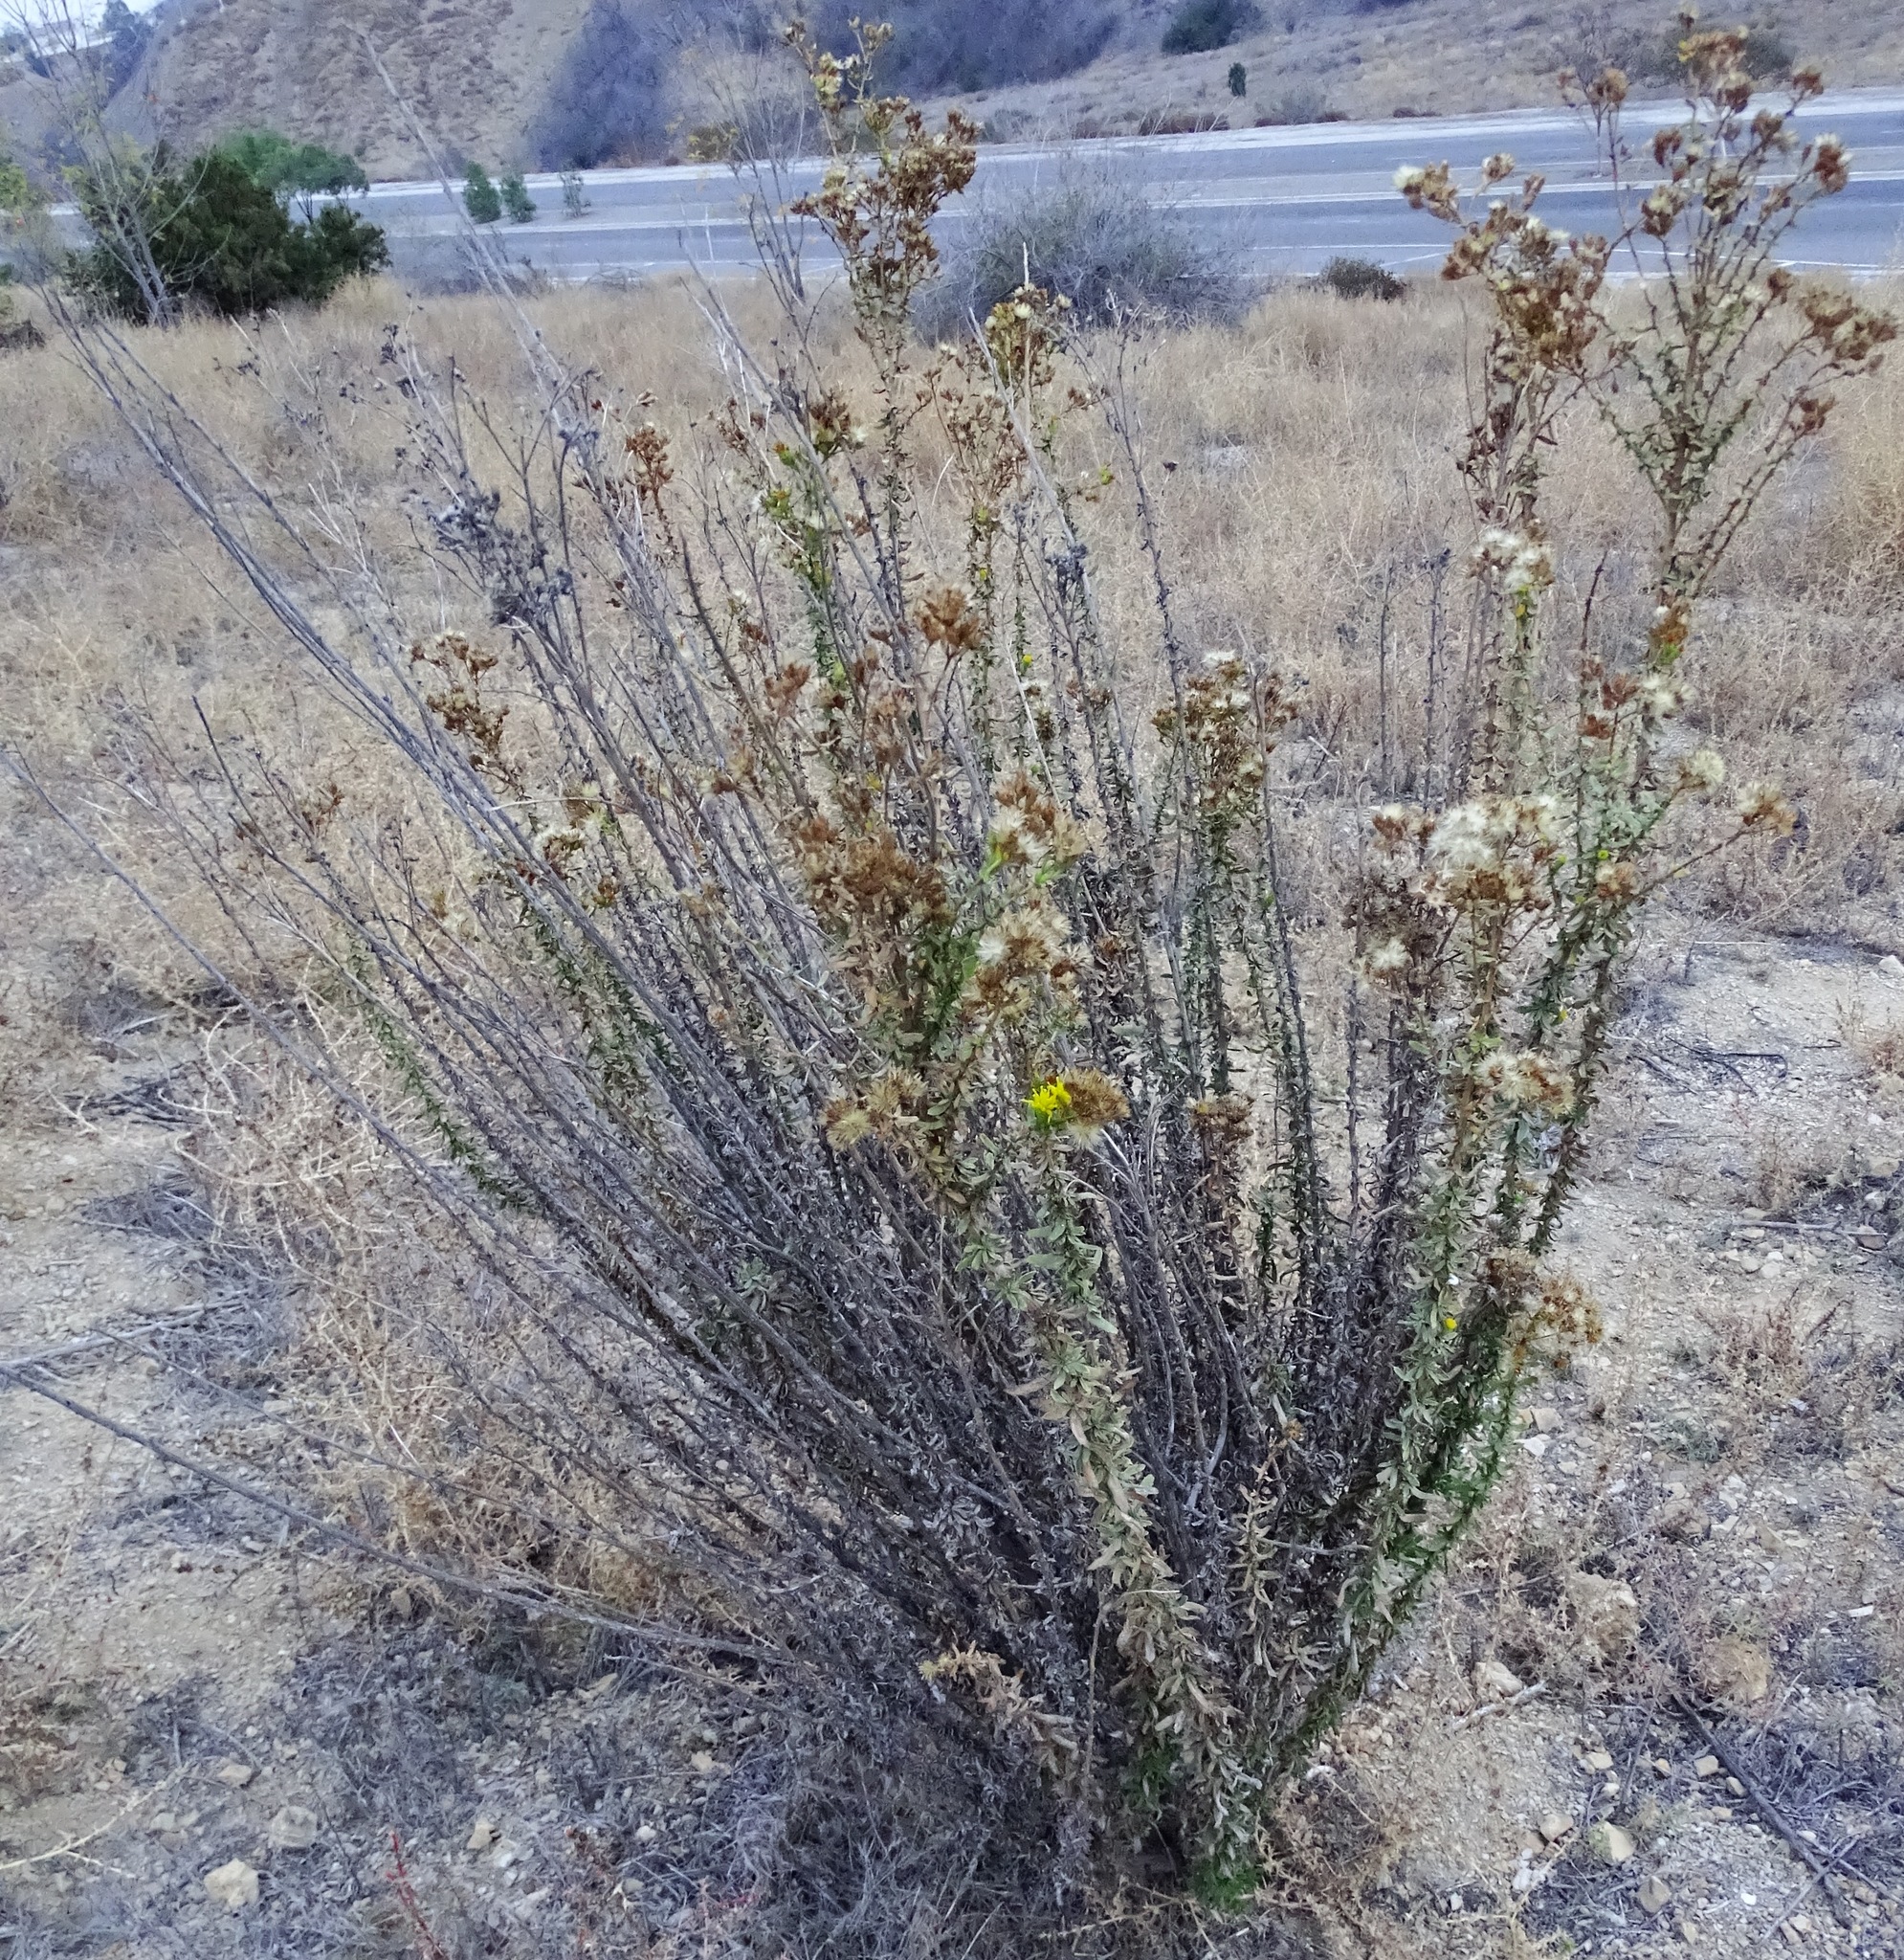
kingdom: Plantae
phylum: Tracheophyta
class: Magnoliopsida
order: Asterales
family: Asteraceae
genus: Isocoma
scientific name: Isocoma menziesii
